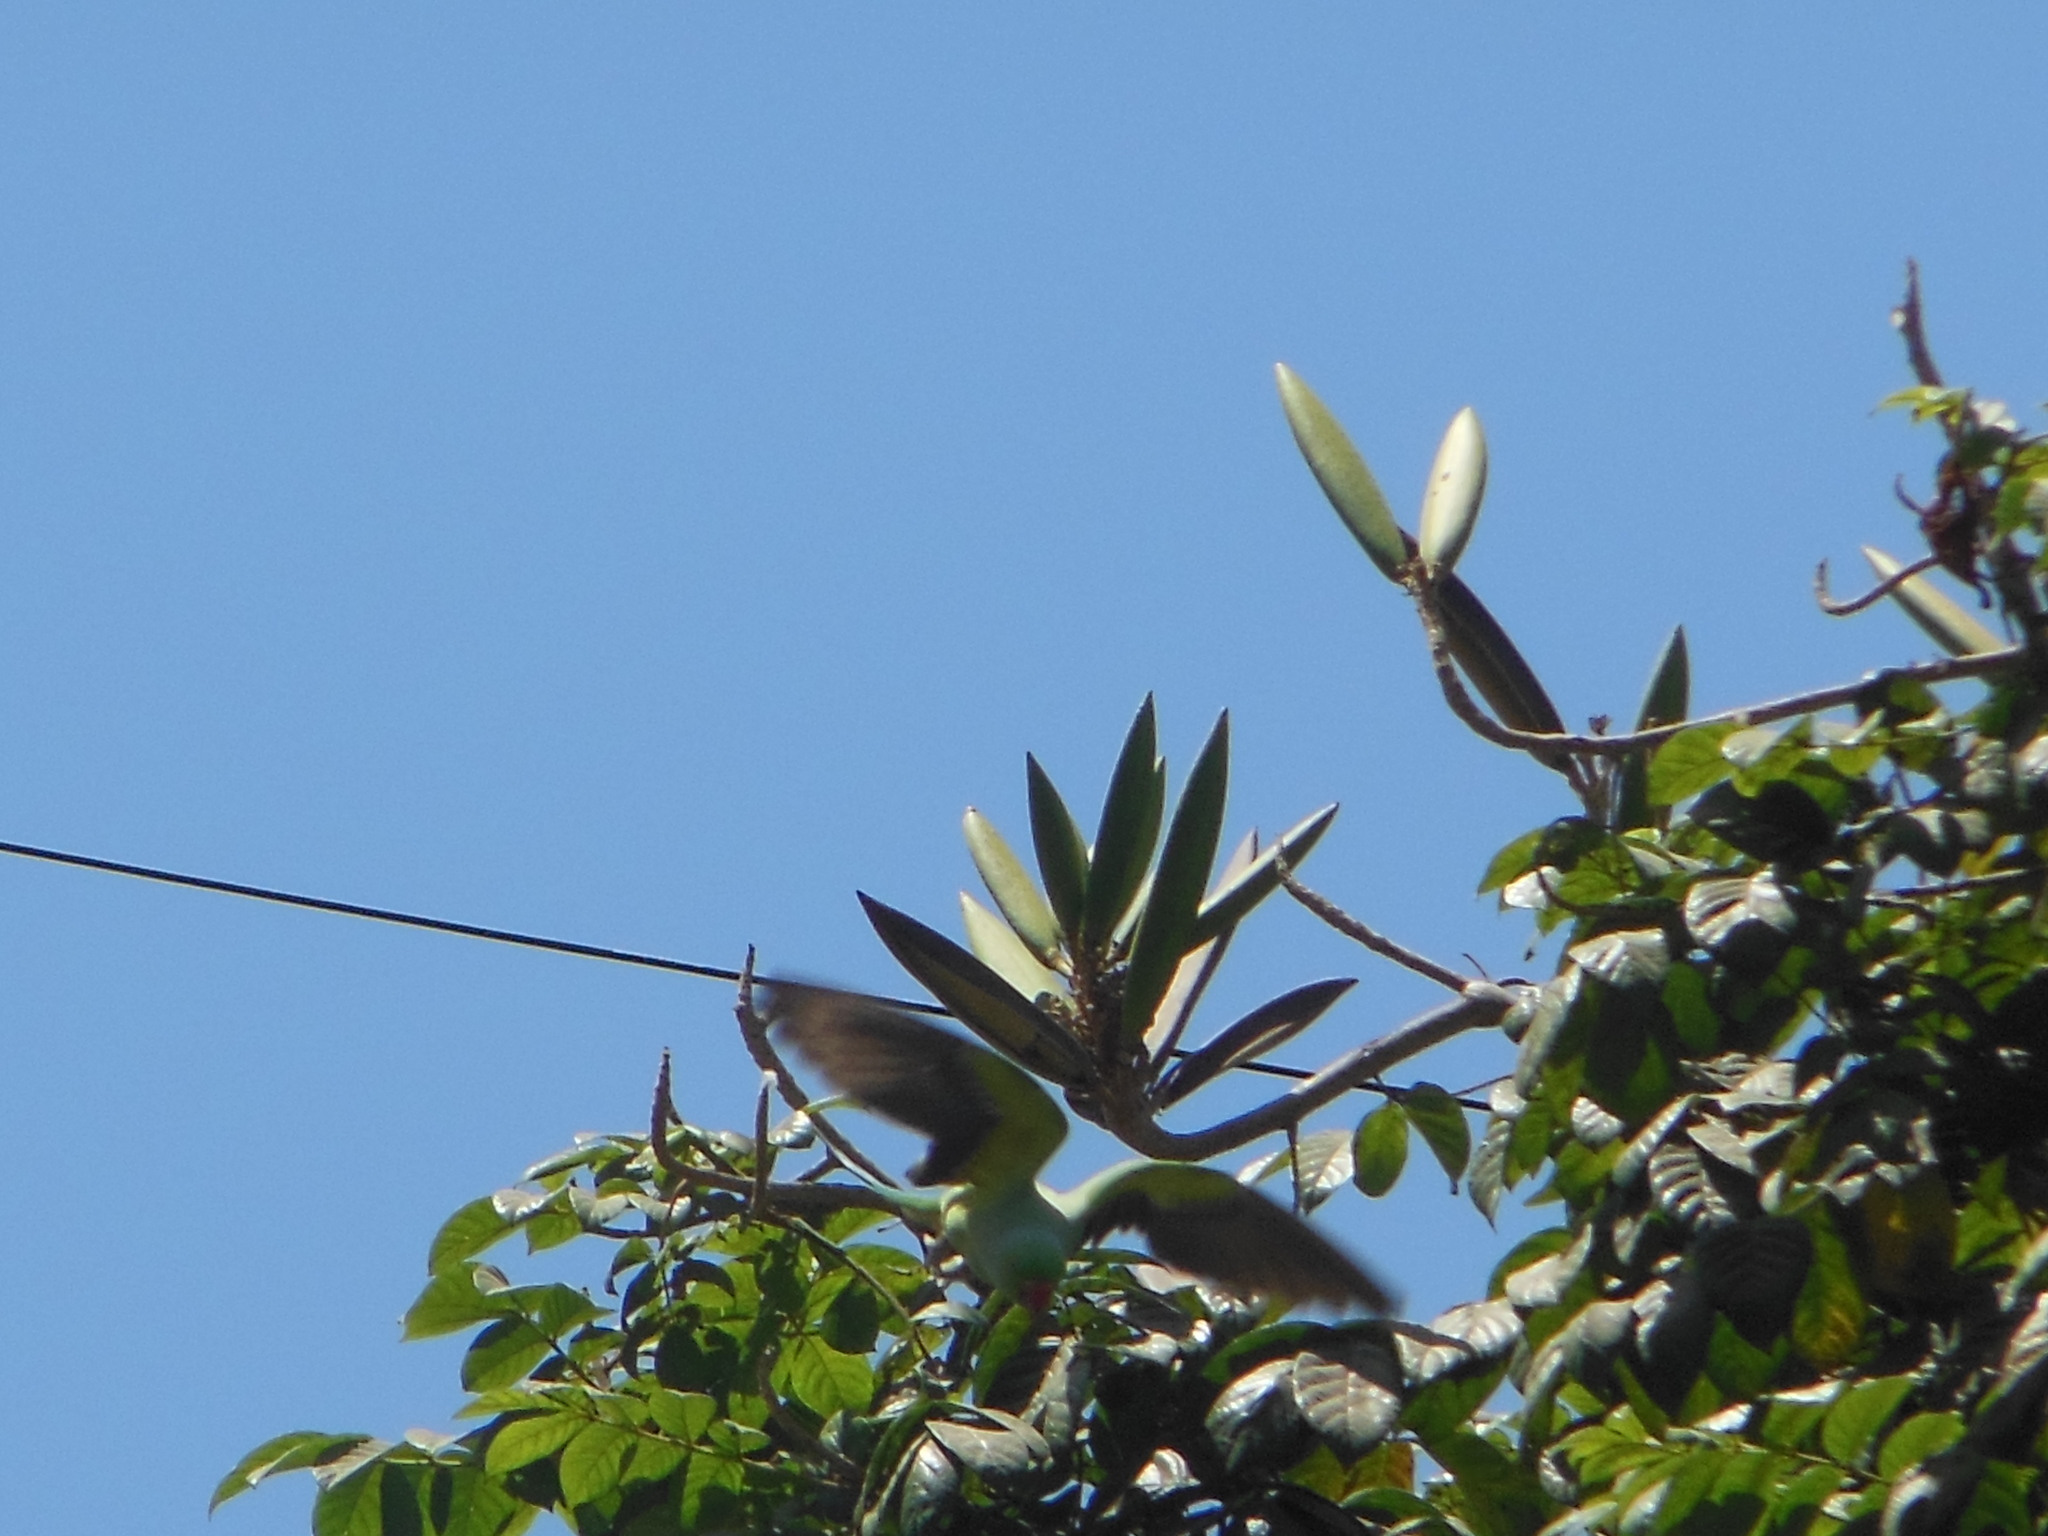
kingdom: Animalia
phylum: Chordata
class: Aves
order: Psittaciformes
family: Psittacidae
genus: Psittacula
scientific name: Psittacula krameri
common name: Rose-ringed parakeet
